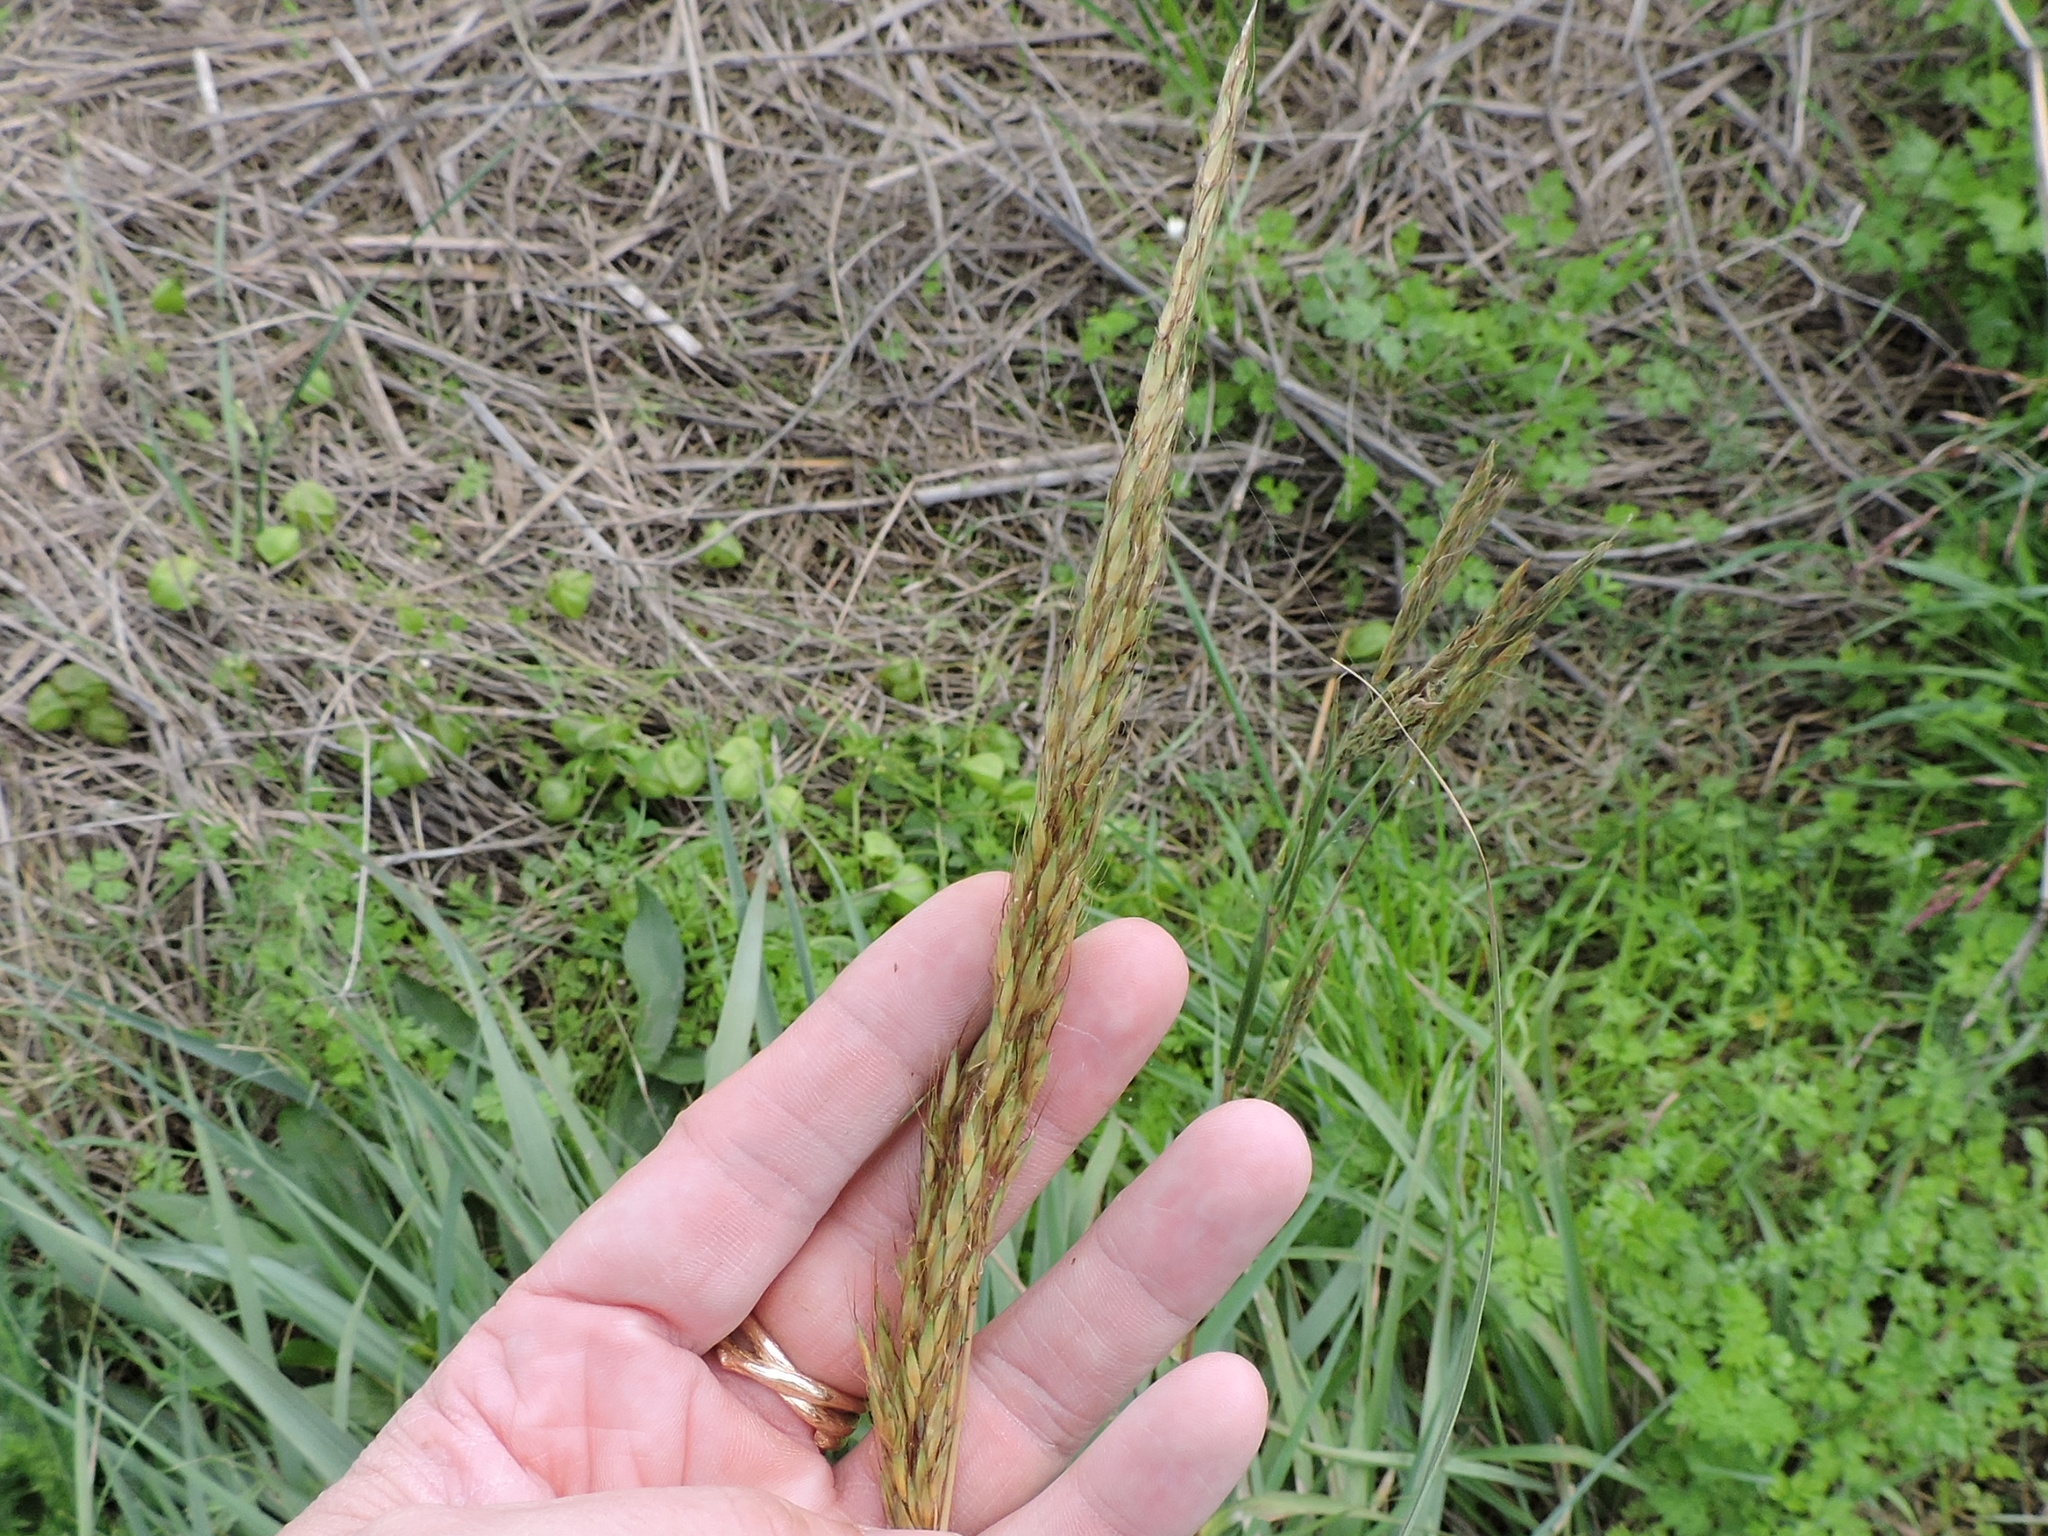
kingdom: Plantae
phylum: Tracheophyta
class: Liliopsida
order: Poales
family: Poaceae
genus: Sorghastrum
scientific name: Sorghastrum nutans
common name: Indian grass
